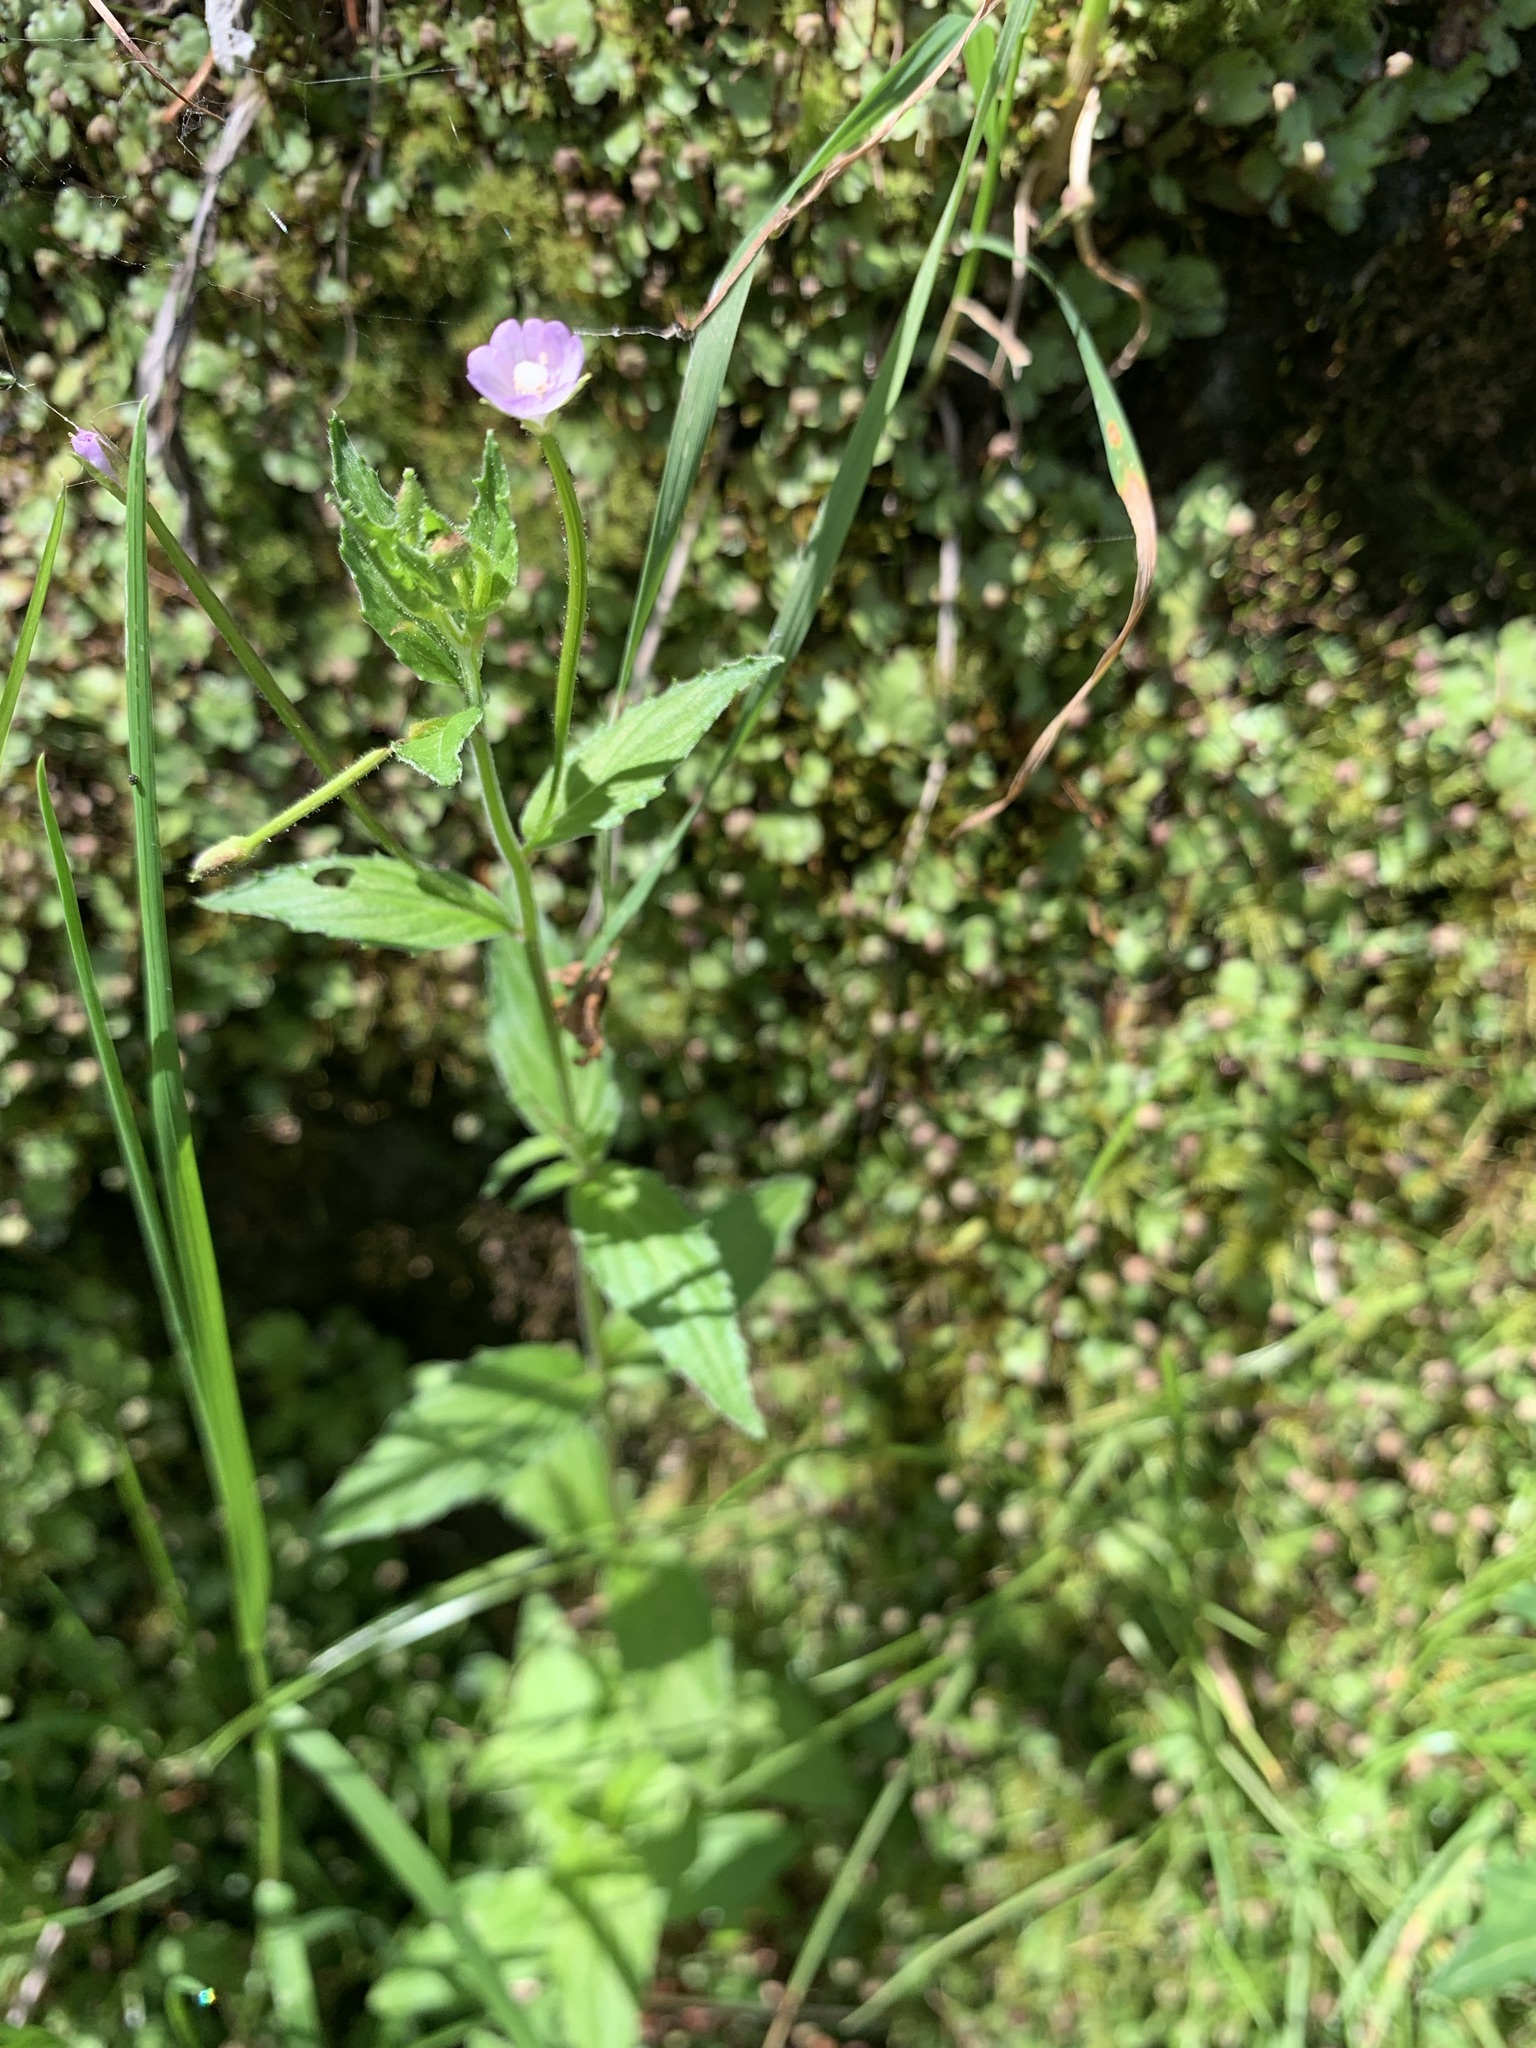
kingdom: Plantae
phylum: Tracheophyta
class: Magnoliopsida
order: Myrtales
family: Onagraceae
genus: Epilobium
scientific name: Epilobium amurense
